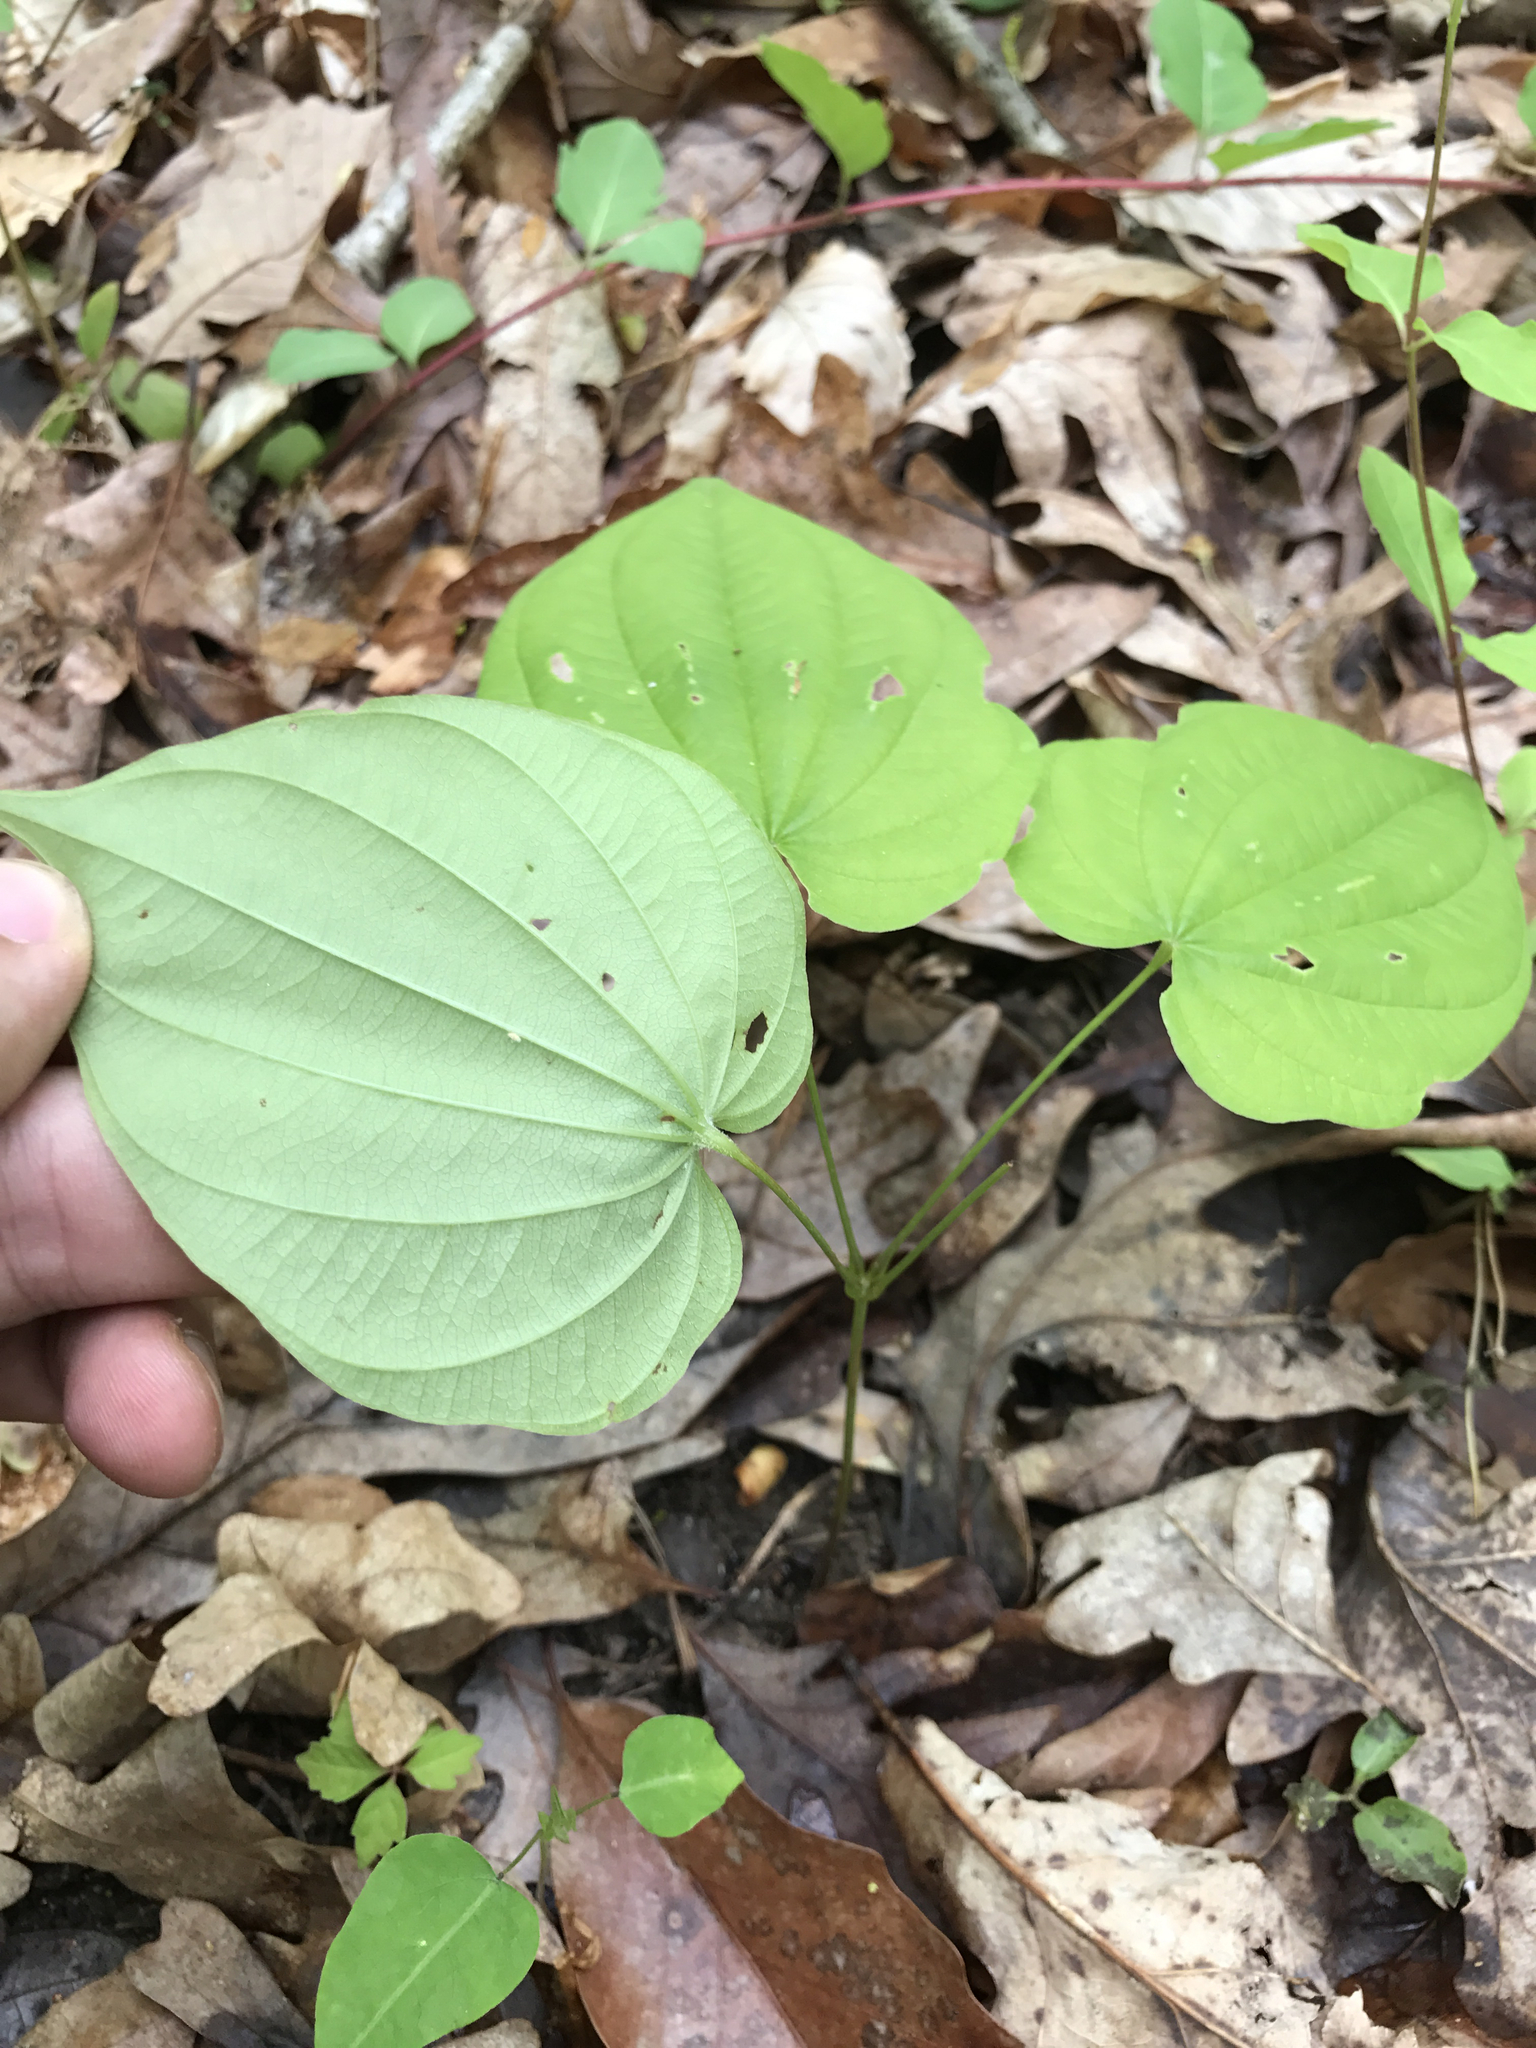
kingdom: Plantae
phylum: Tracheophyta
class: Liliopsida
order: Dioscoreales
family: Dioscoreaceae
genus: Dioscorea
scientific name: Dioscorea villosa
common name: Wild yam
